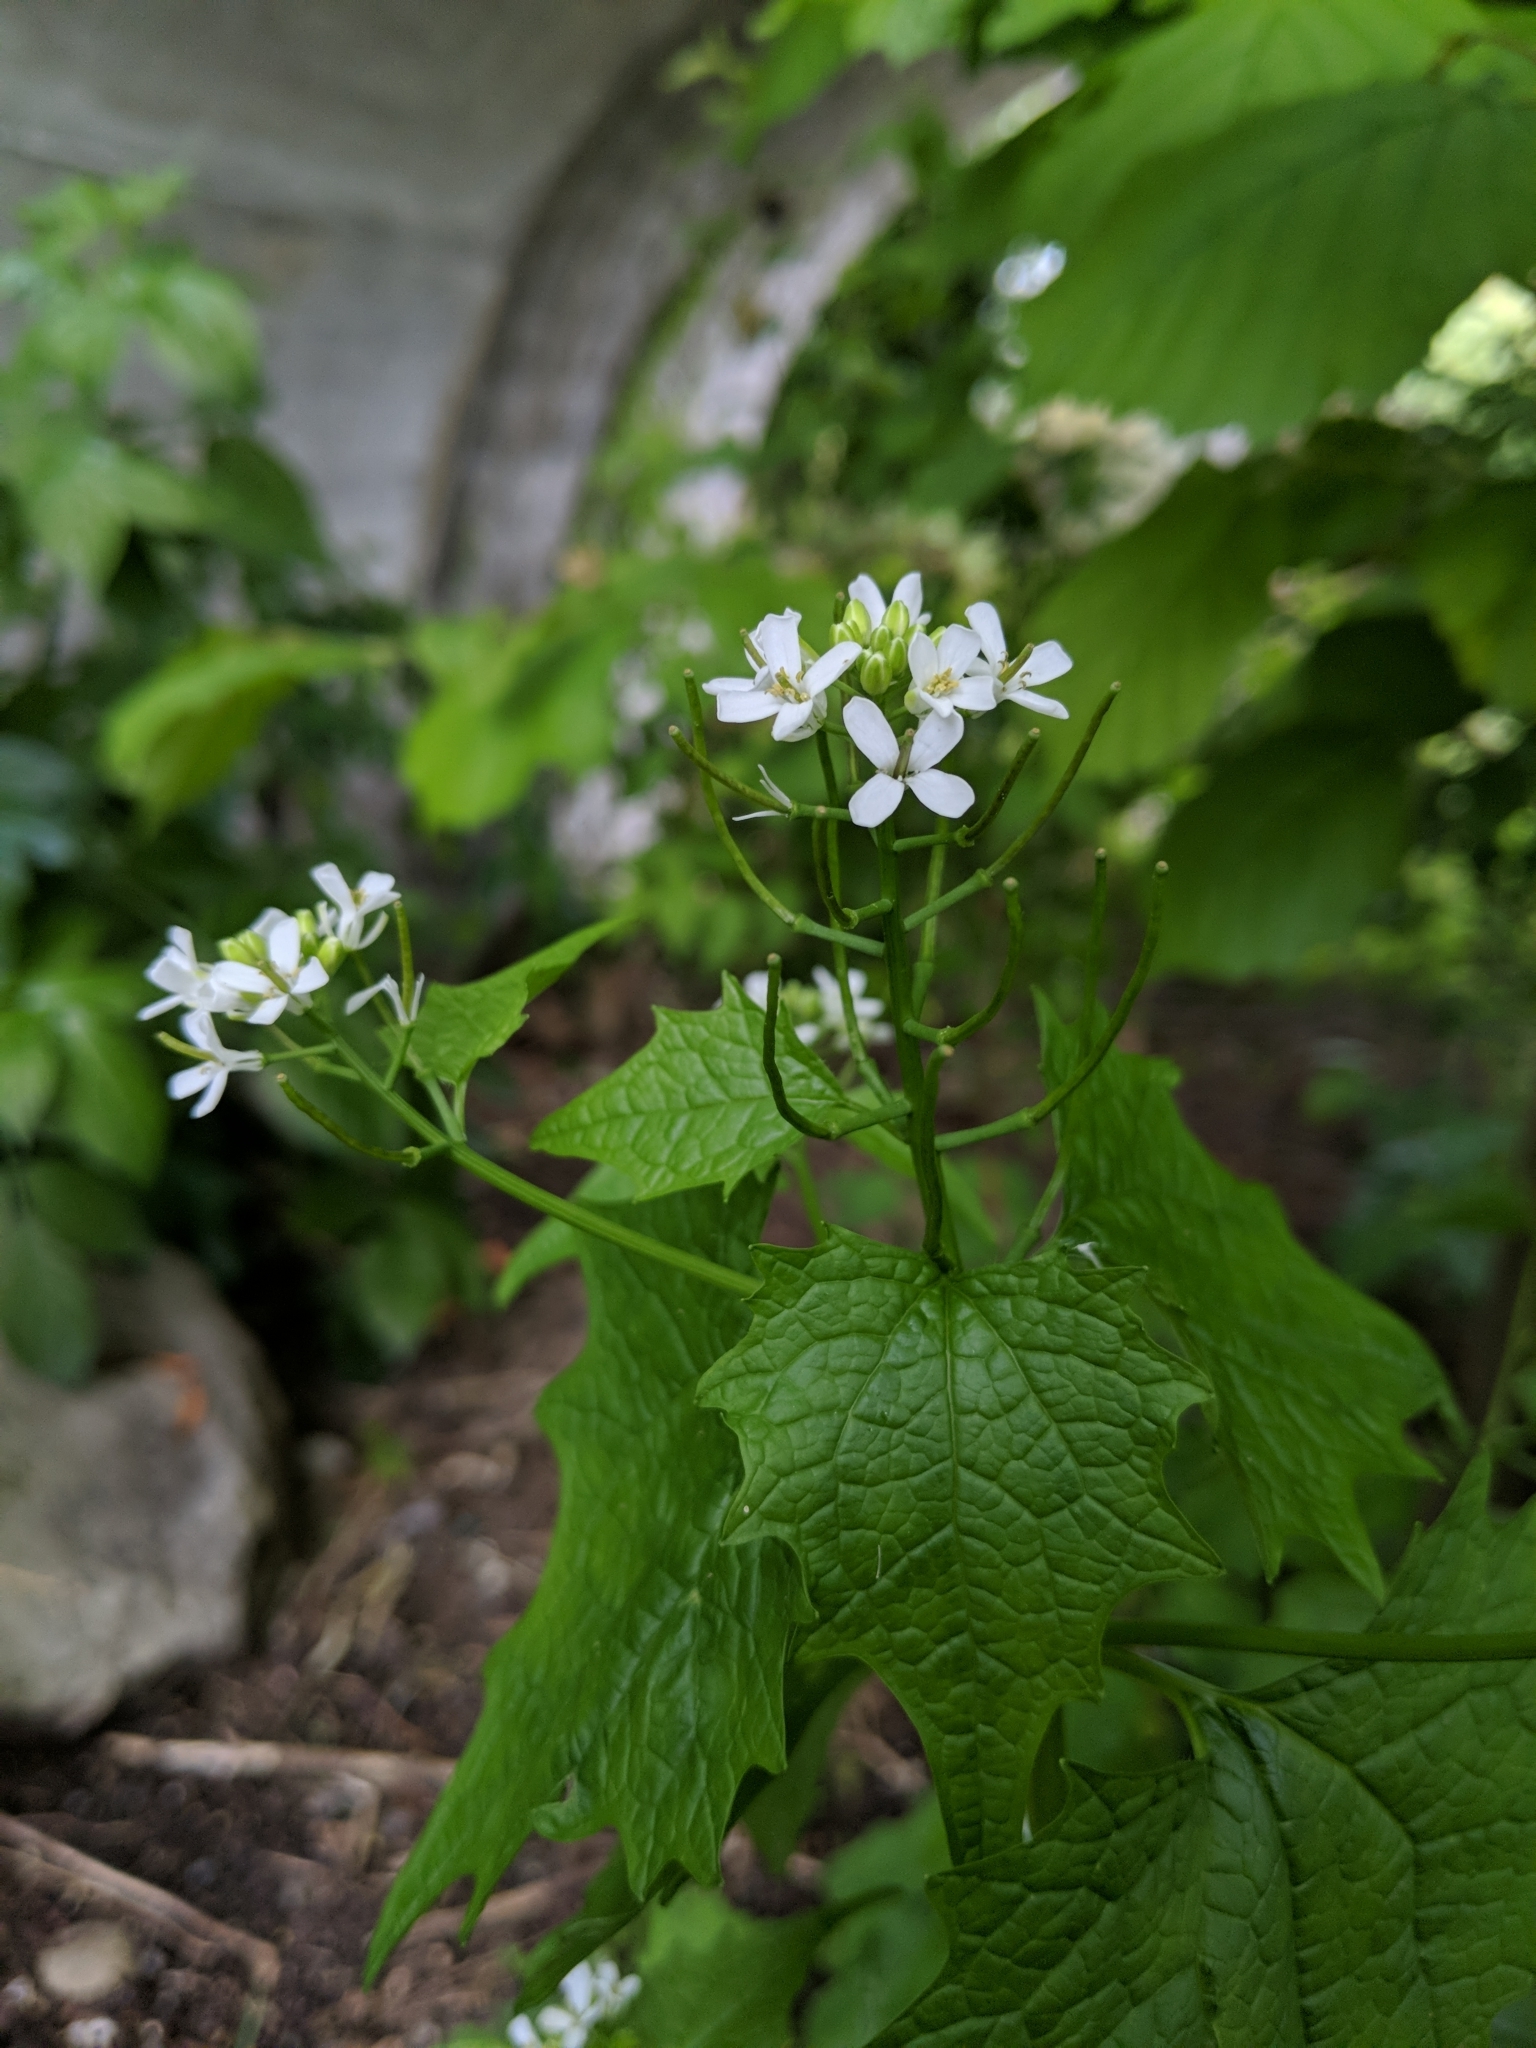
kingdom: Plantae
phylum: Tracheophyta
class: Magnoliopsida
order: Brassicales
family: Brassicaceae
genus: Alliaria
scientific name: Alliaria petiolata
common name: Garlic mustard
